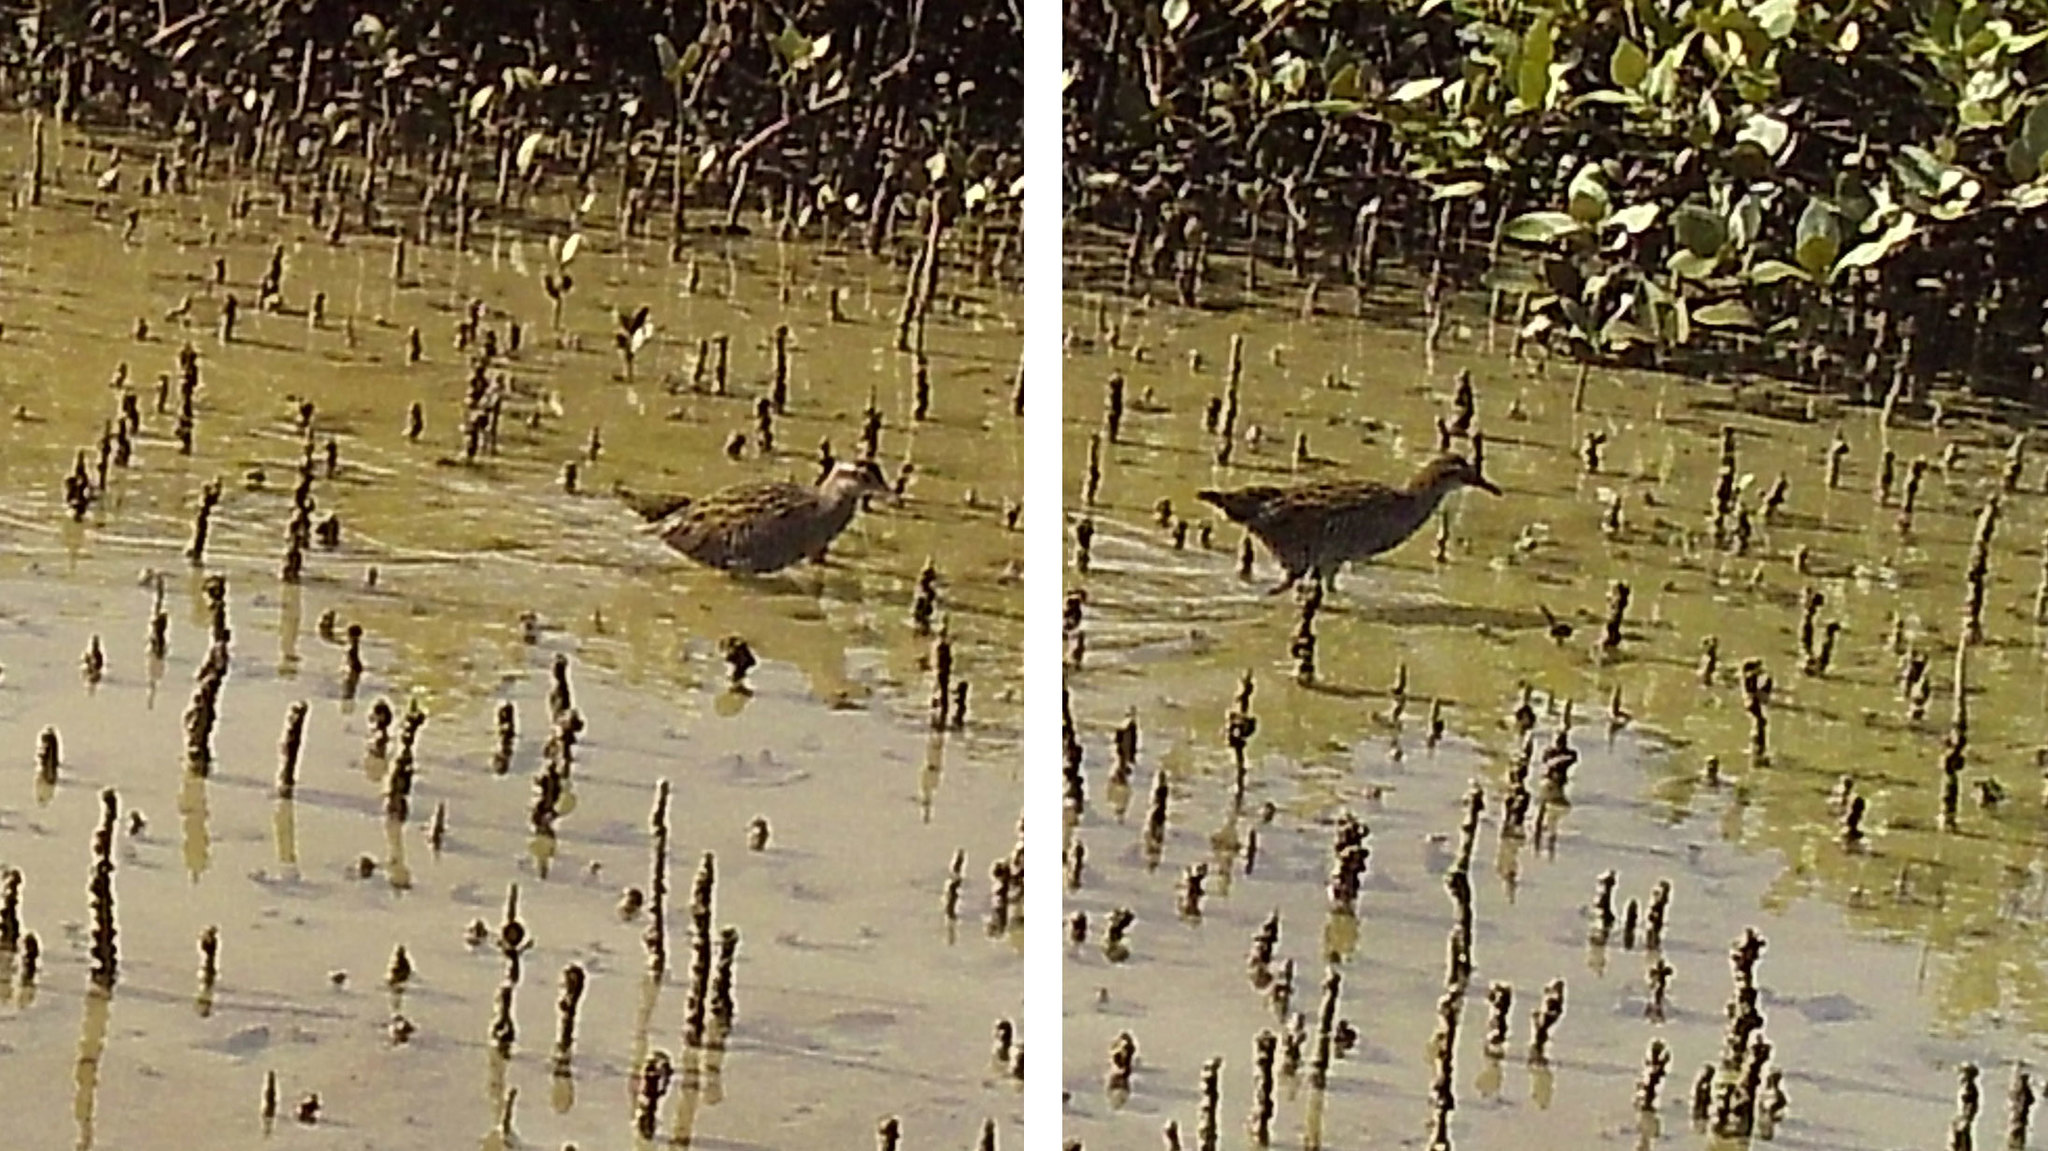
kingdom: Animalia
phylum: Chordata
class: Aves
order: Gruiformes
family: Rallidae
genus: Gallirallus
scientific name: Gallirallus philippensis
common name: Buff-banded rail
